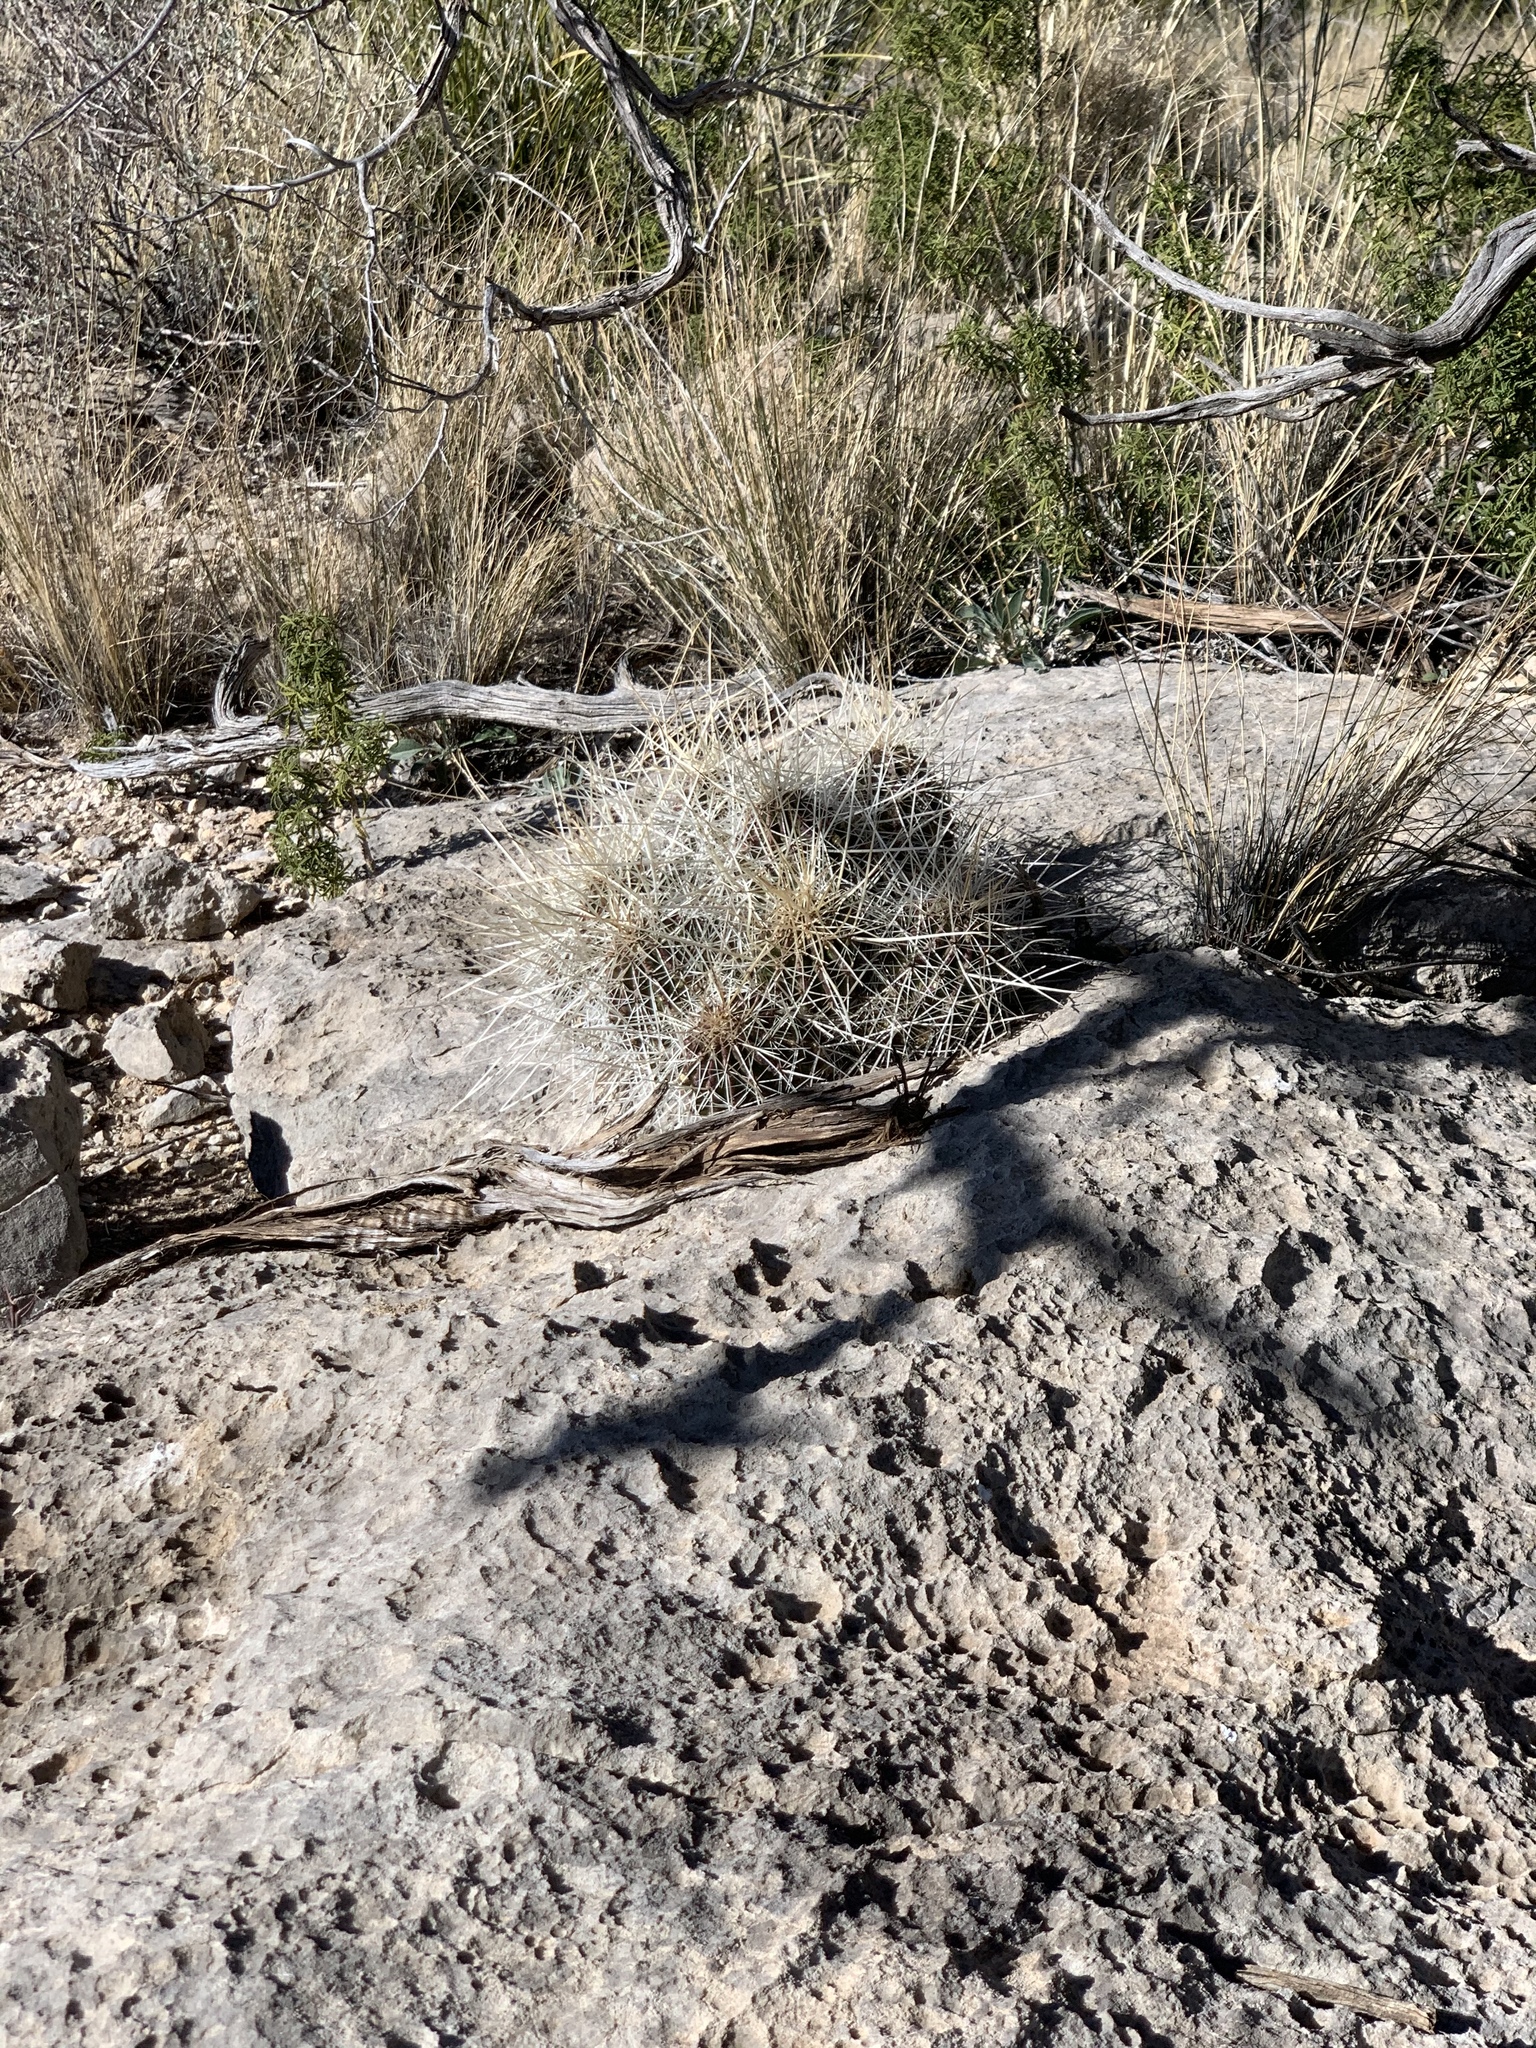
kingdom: Plantae
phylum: Tracheophyta
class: Magnoliopsida
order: Caryophyllales
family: Cactaceae
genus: Echinocereus
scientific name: Echinocereus stramineus
